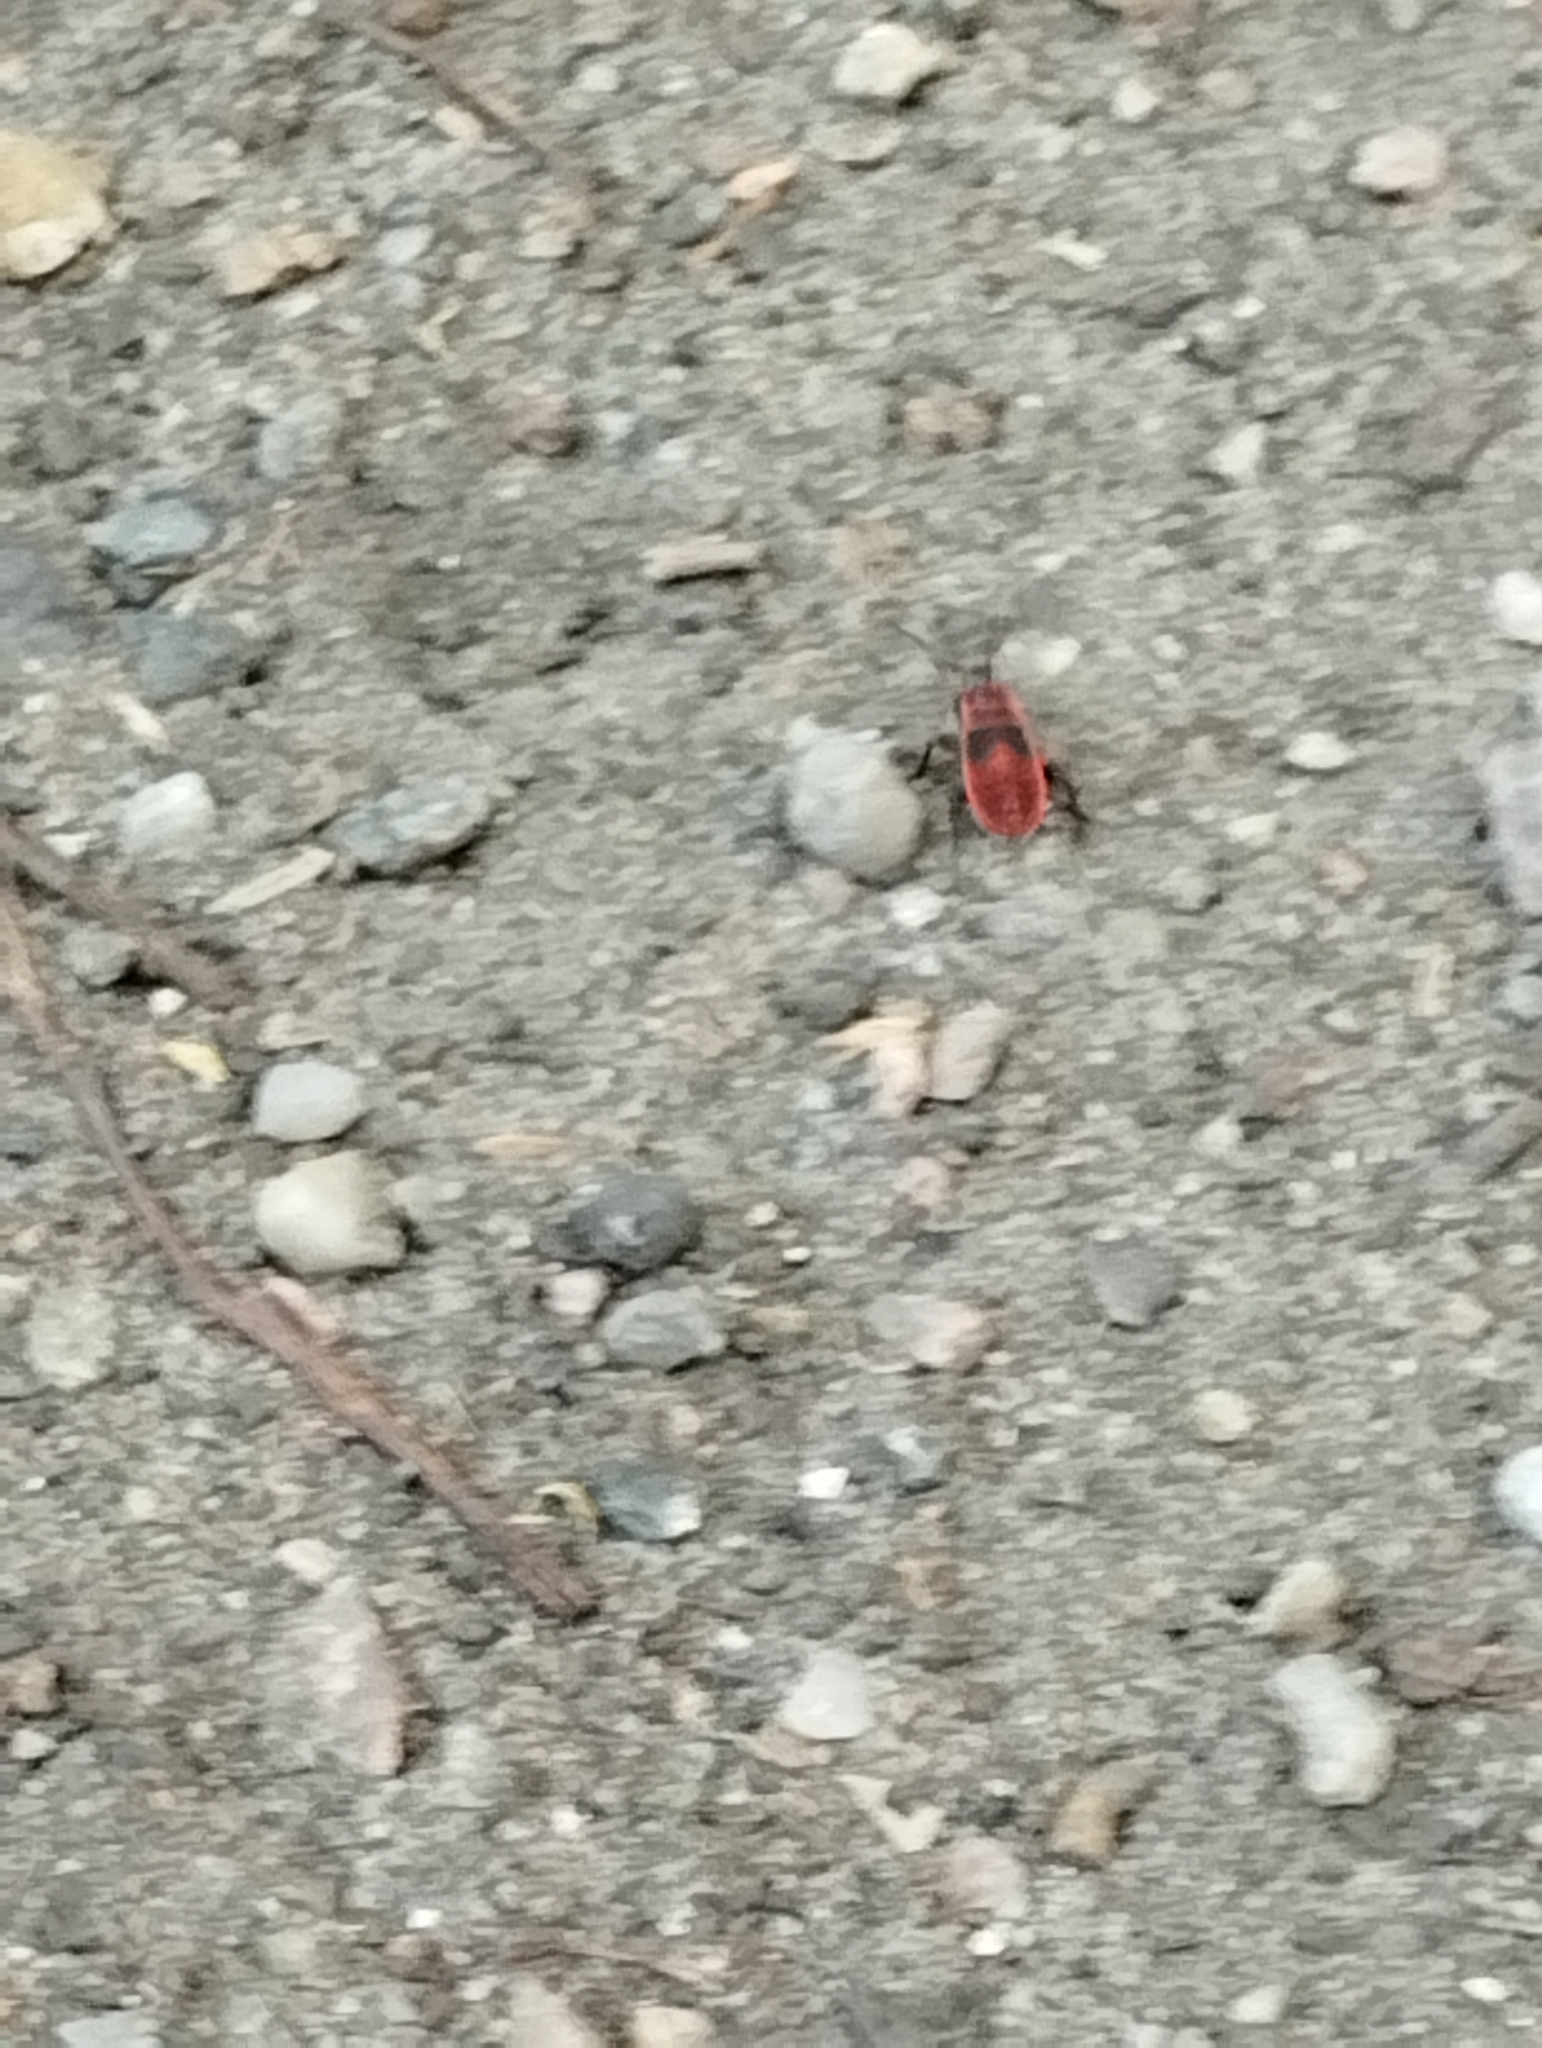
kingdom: Animalia
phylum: Arthropoda
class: Insecta
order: Hemiptera
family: Pyrrhocoridae
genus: Pyrrhocoris
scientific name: Pyrrhocoris apterus
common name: Firebug
